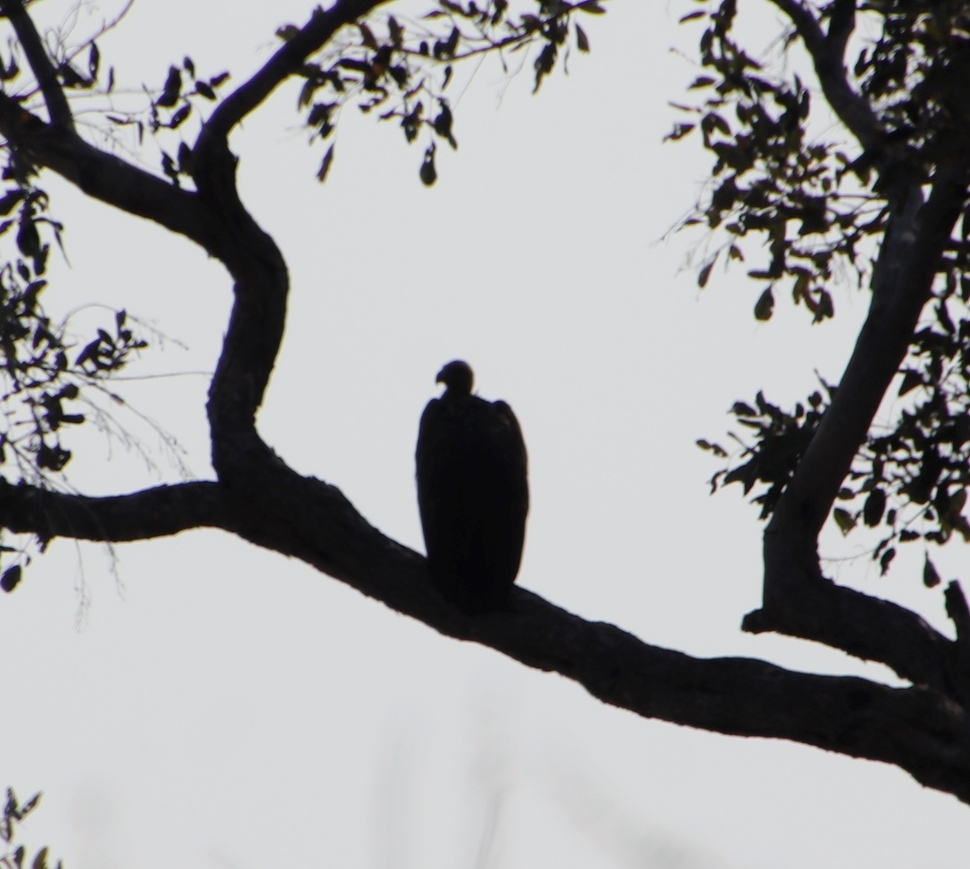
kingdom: Animalia
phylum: Chordata
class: Aves
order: Accipitriformes
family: Accipitridae
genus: Gyps
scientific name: Gyps africanus
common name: White-backed vulture
